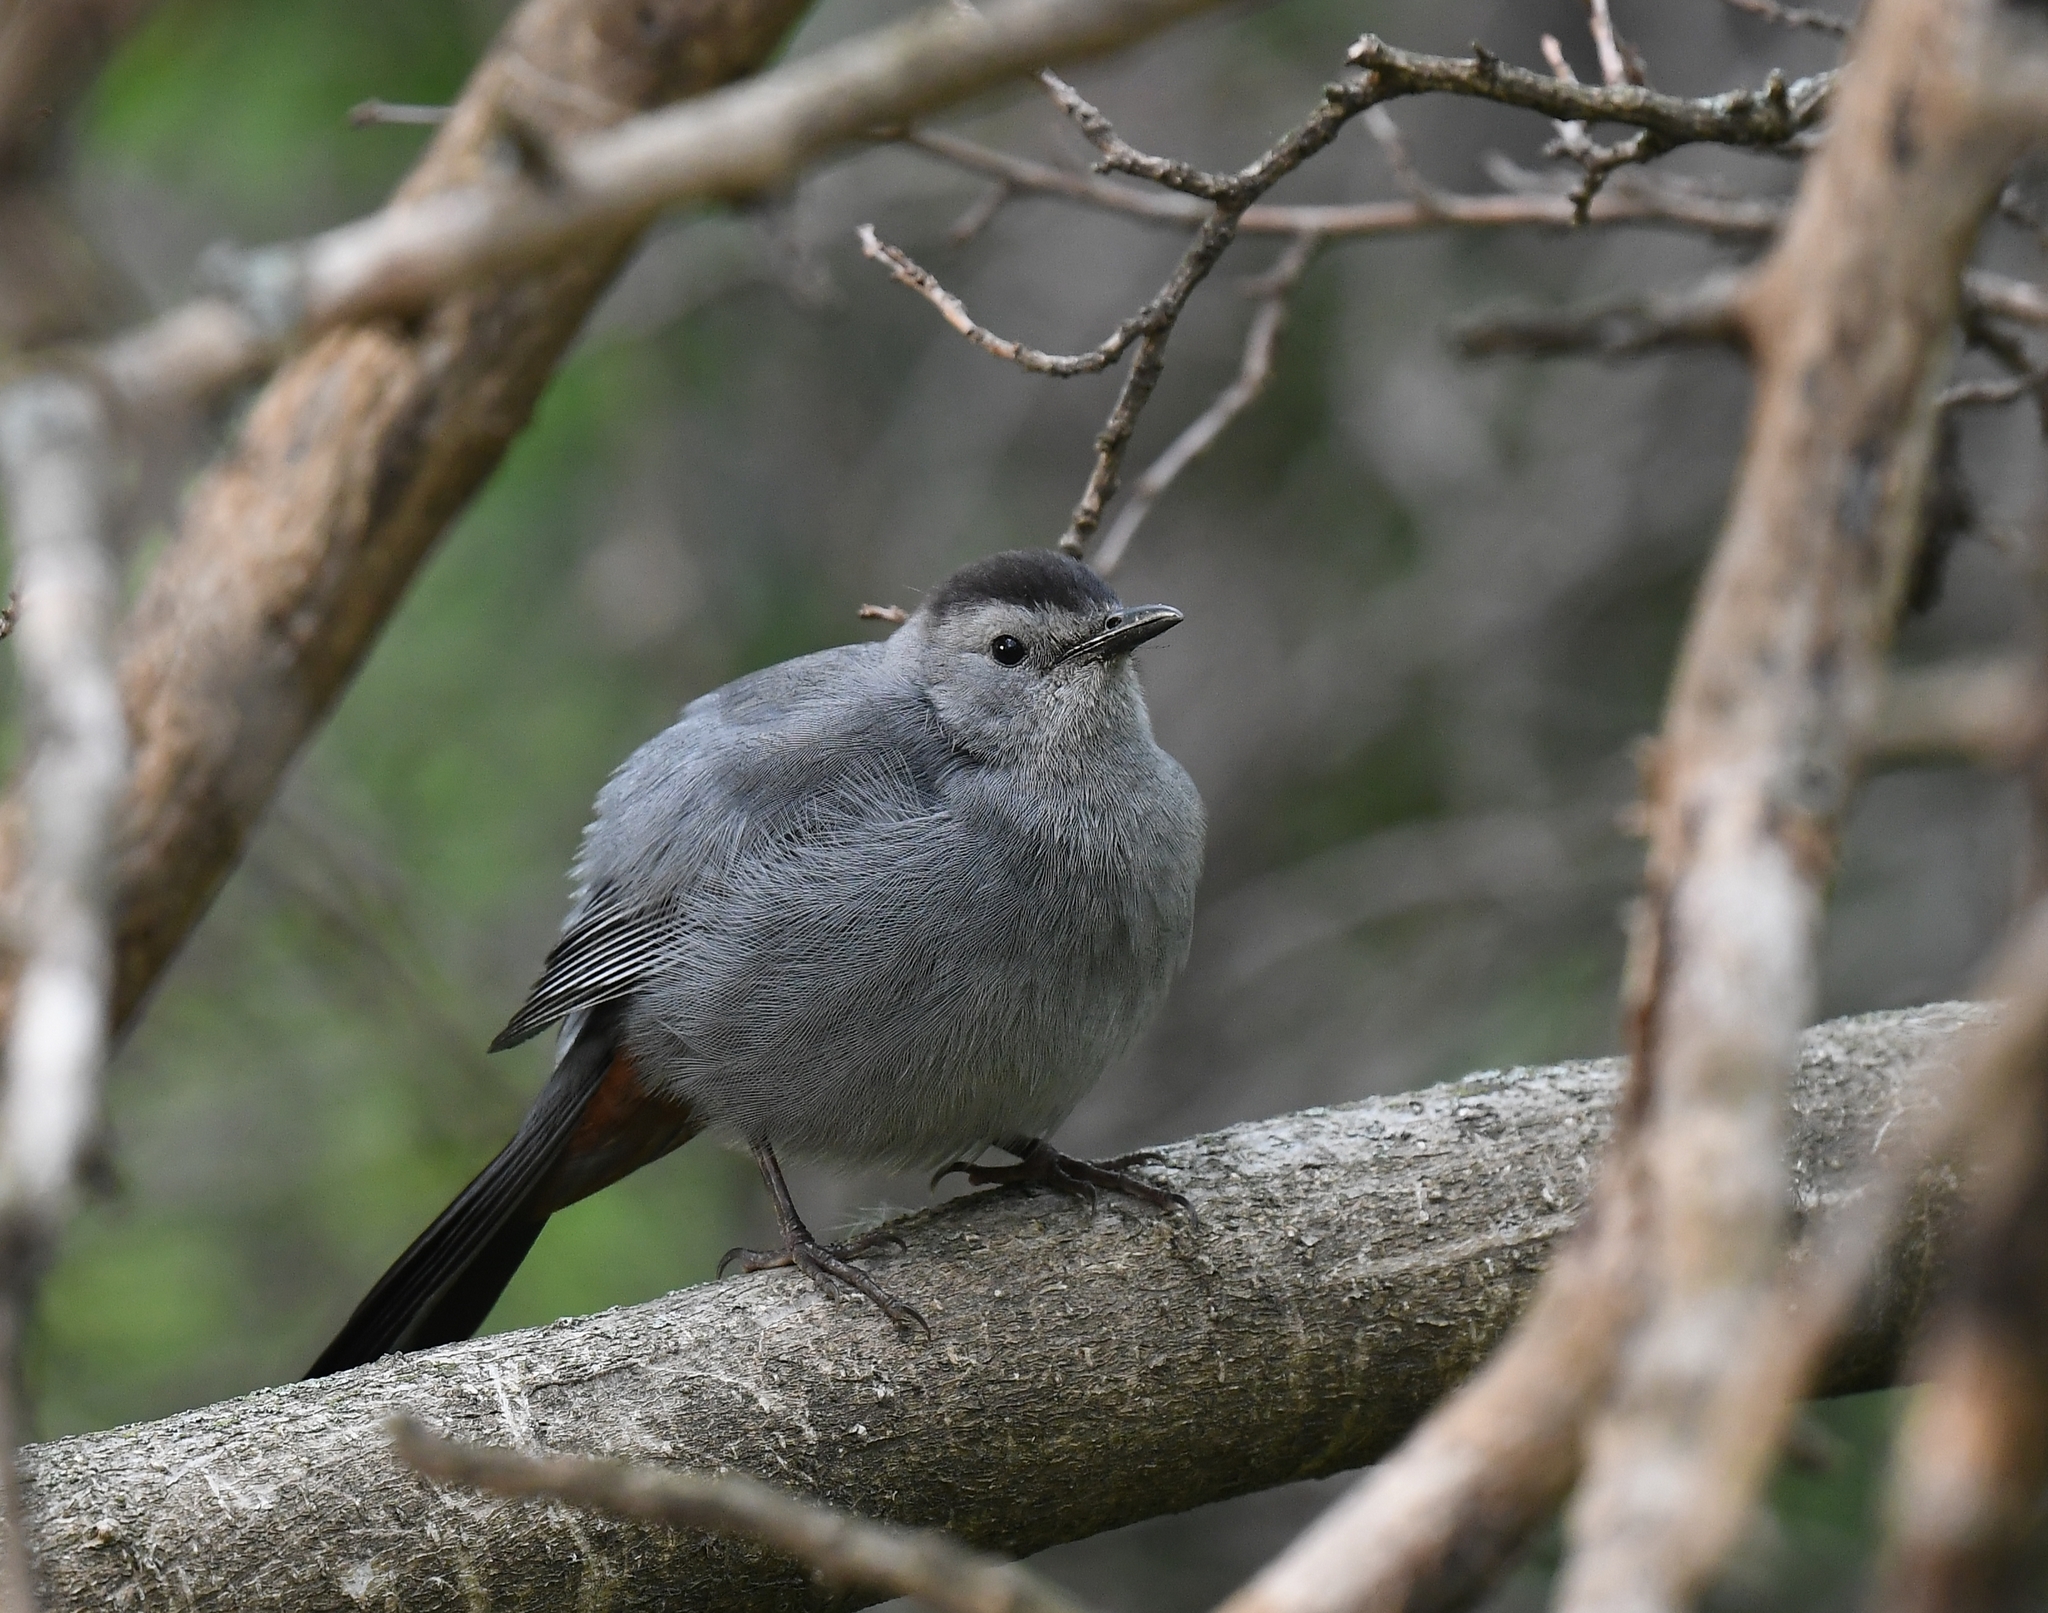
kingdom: Animalia
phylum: Chordata
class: Aves
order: Passeriformes
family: Mimidae
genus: Dumetella
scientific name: Dumetella carolinensis
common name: Gray catbird
